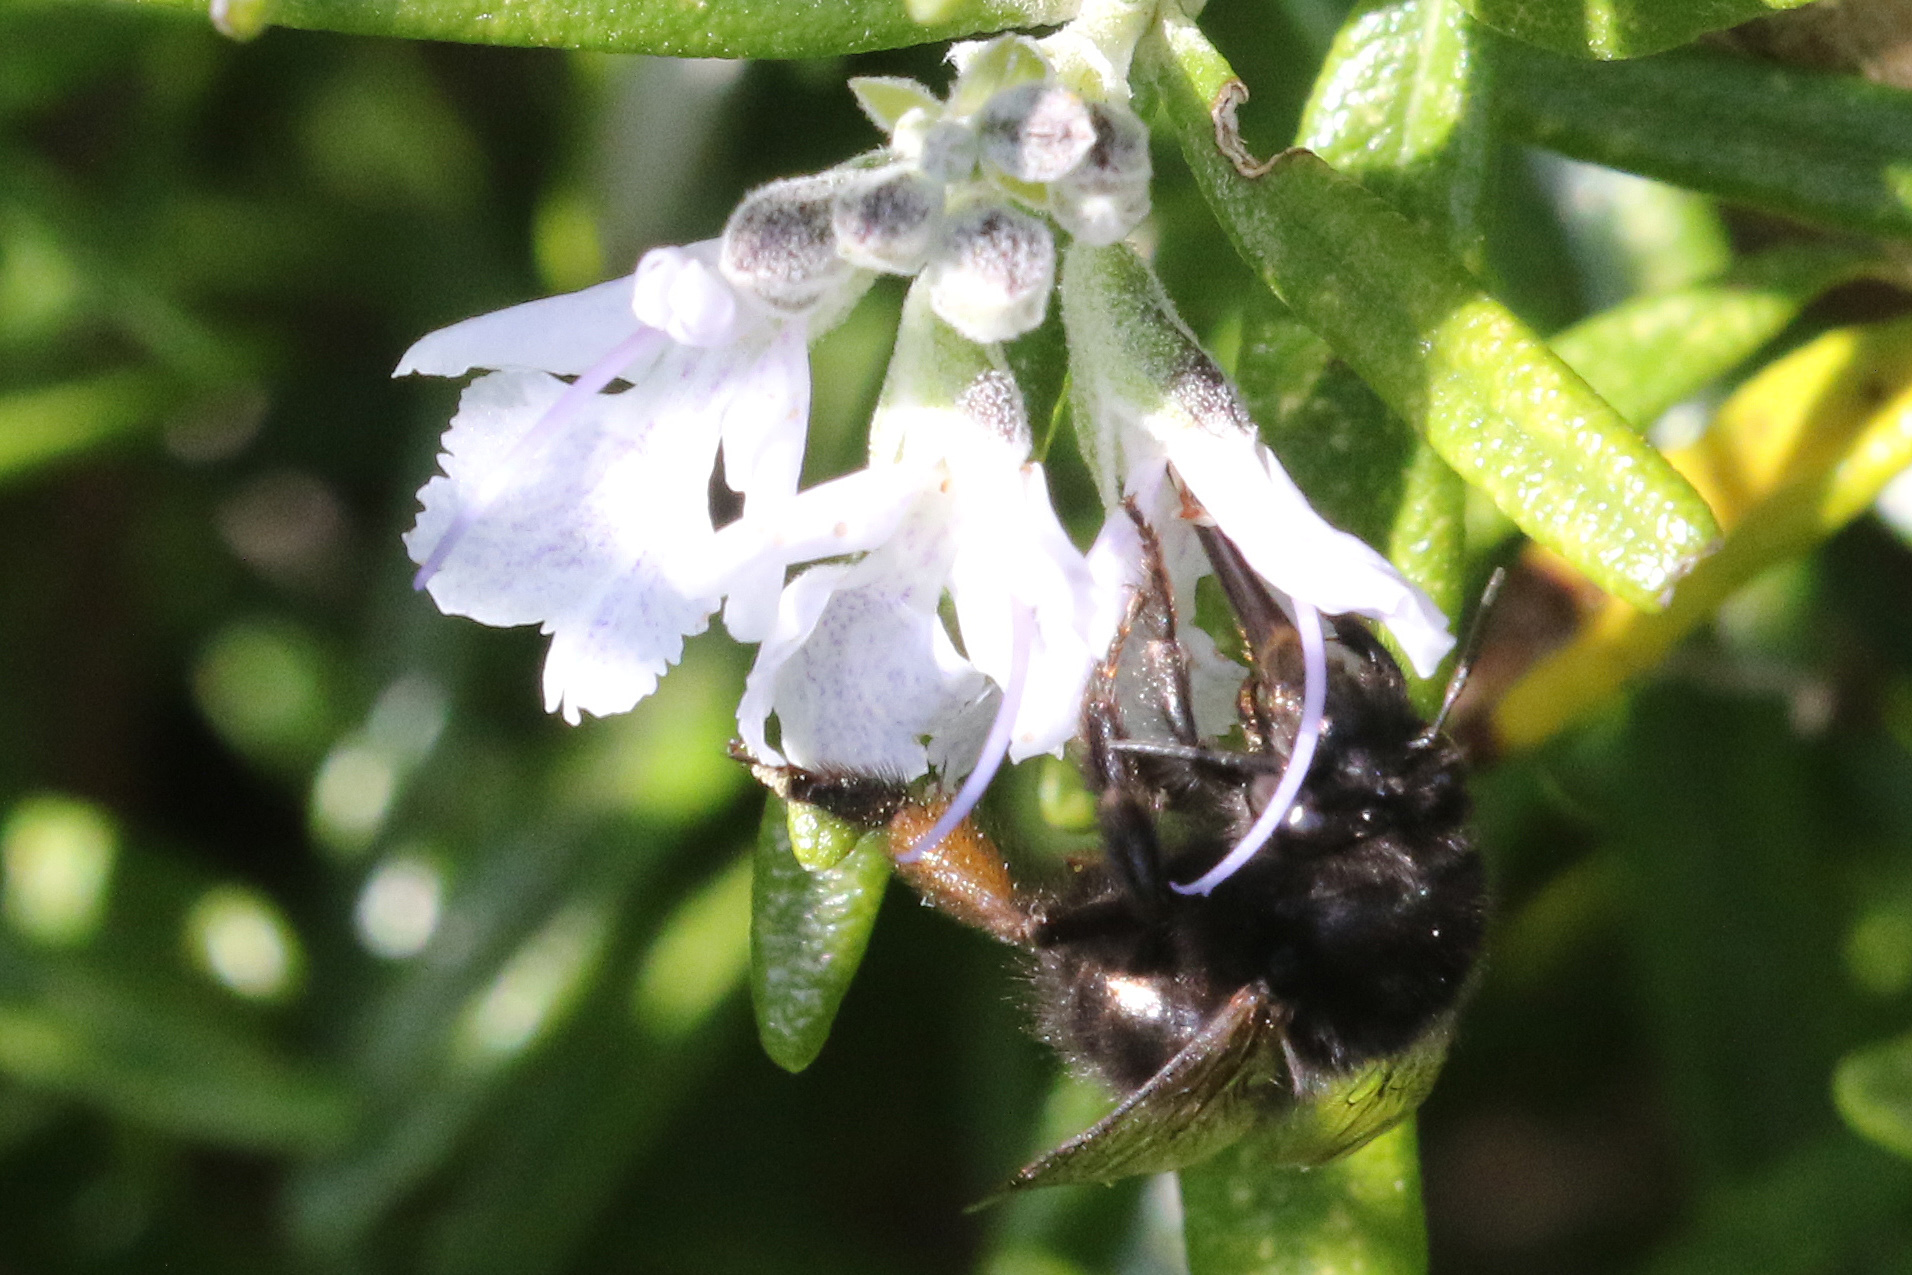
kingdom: Animalia
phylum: Arthropoda
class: Insecta
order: Hymenoptera
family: Apidae
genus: Anthophora
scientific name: Anthophora plumipes
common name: Hairy-footed flower bee
